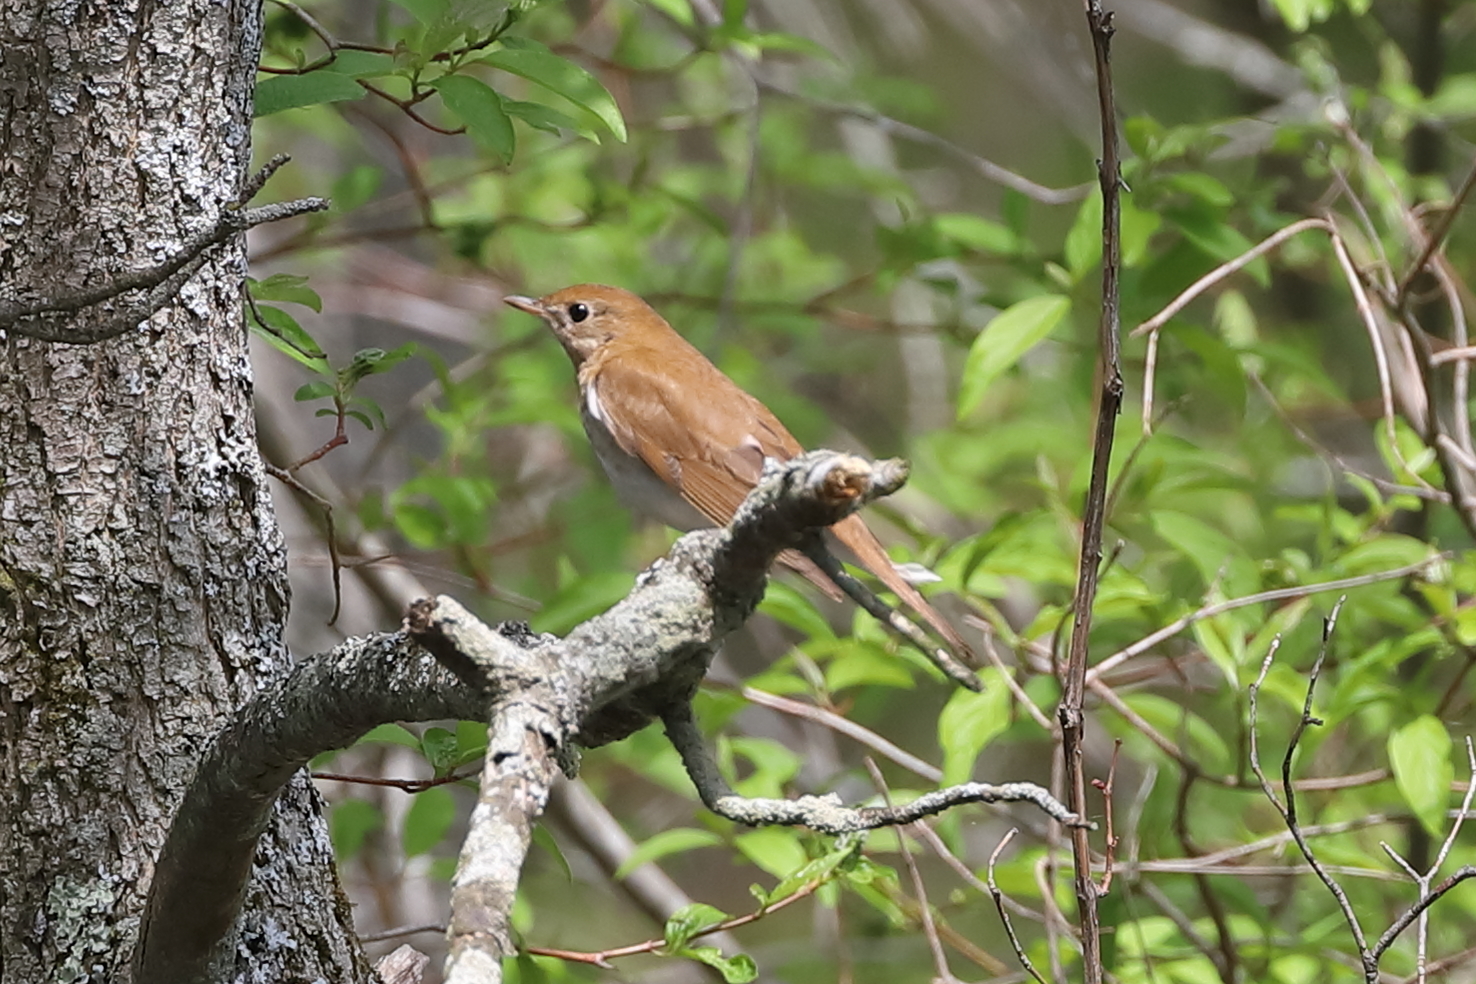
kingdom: Animalia
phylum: Chordata
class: Aves
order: Passeriformes
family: Turdidae
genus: Catharus
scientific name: Catharus fuscescens
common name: Veery
